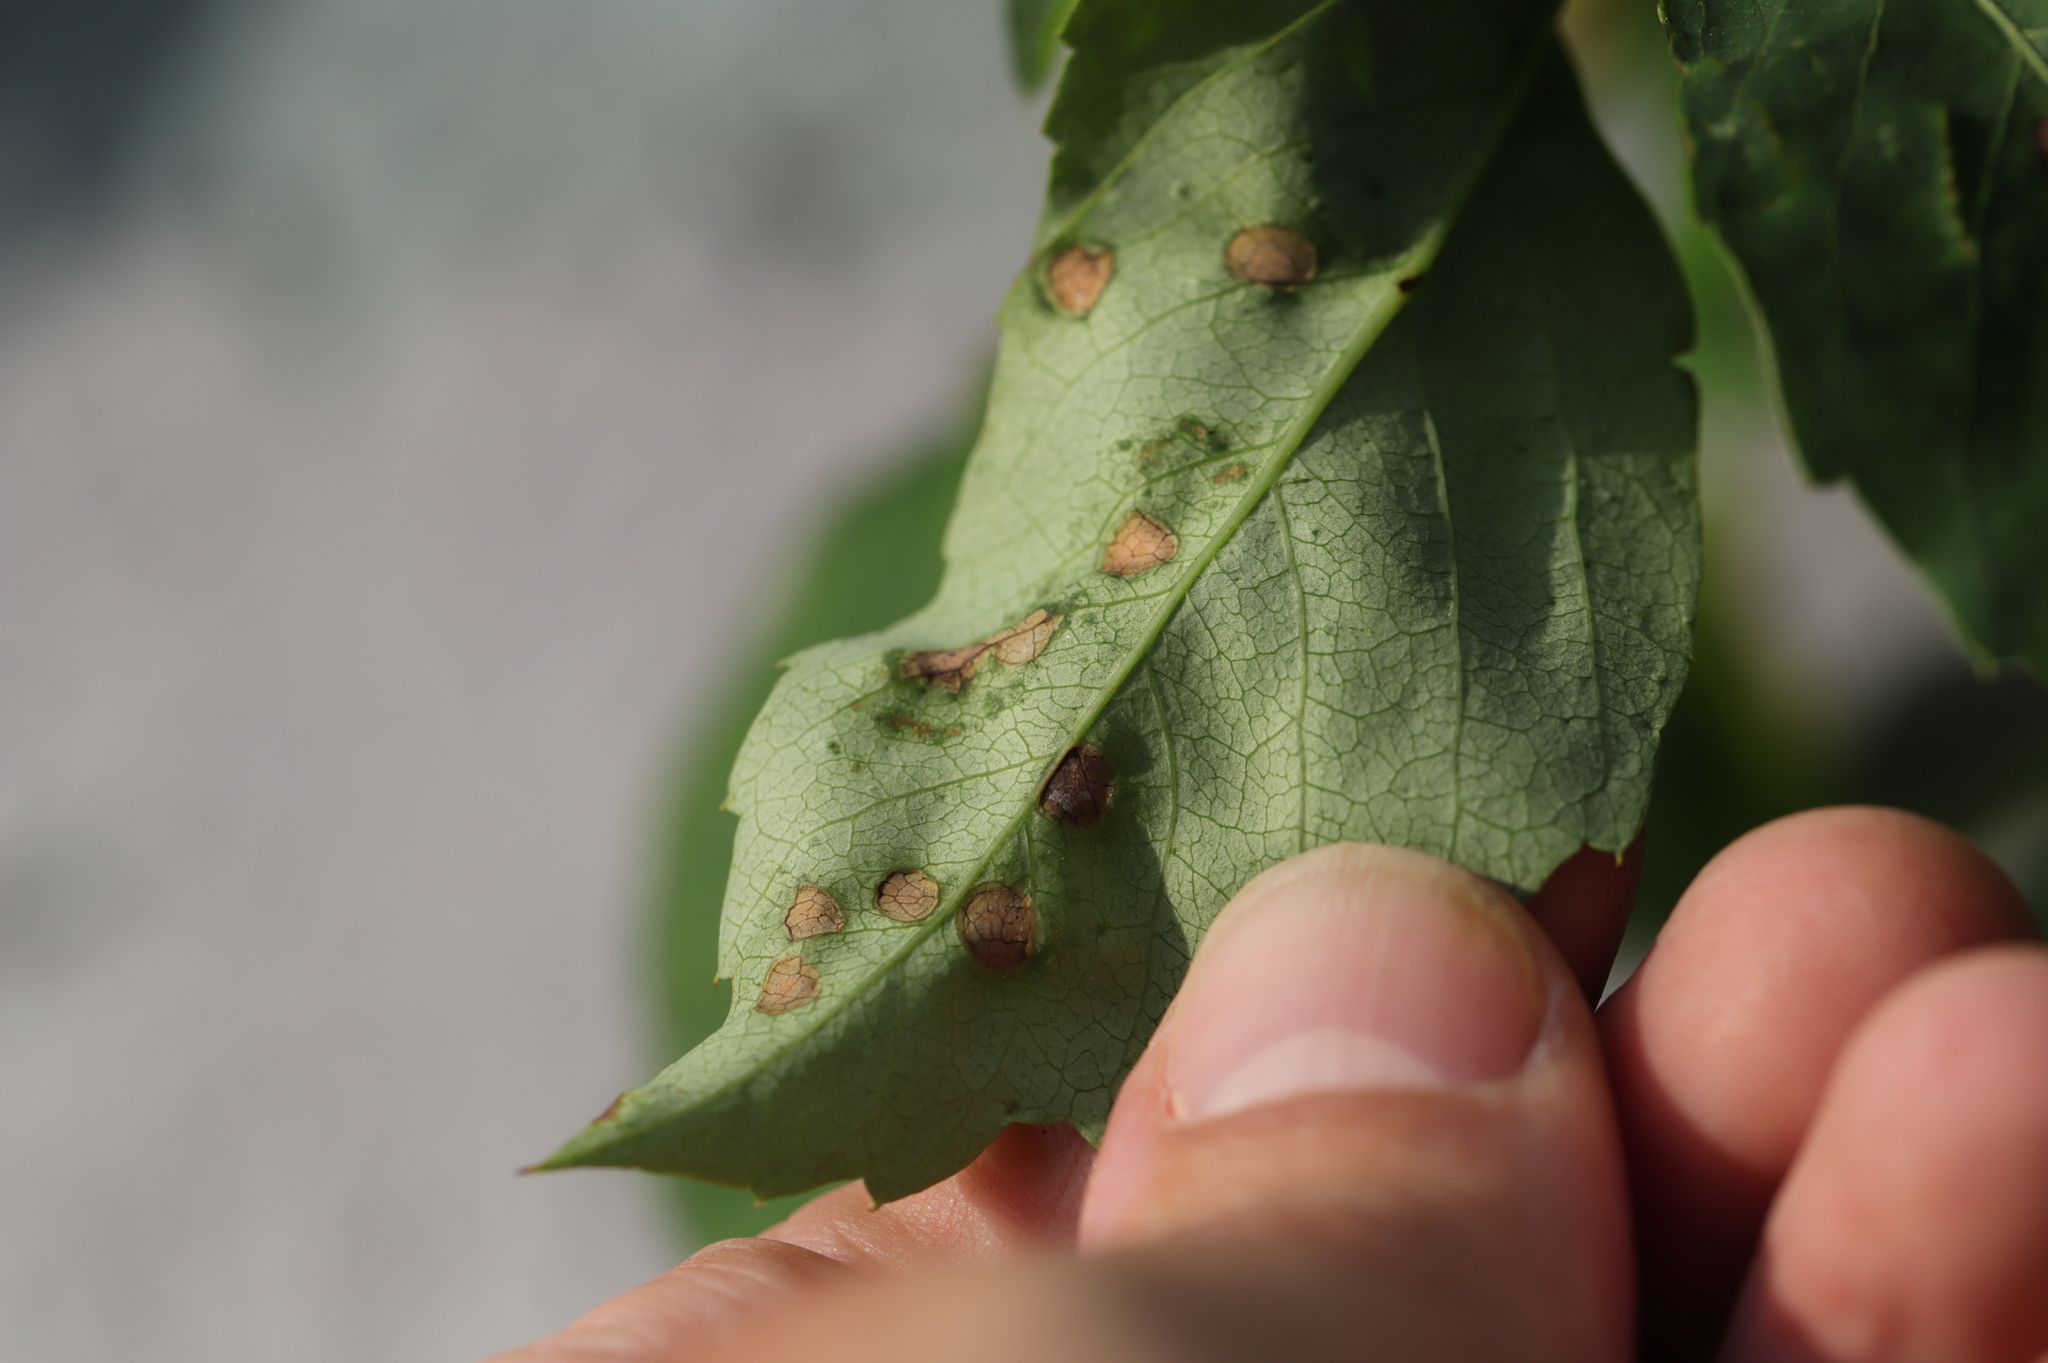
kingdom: Fungi
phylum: Ascomycota
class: Dothideomycetes
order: Botryosphaeriales
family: Phyllostictaceae
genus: Phyllosticta
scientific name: Phyllosticta
